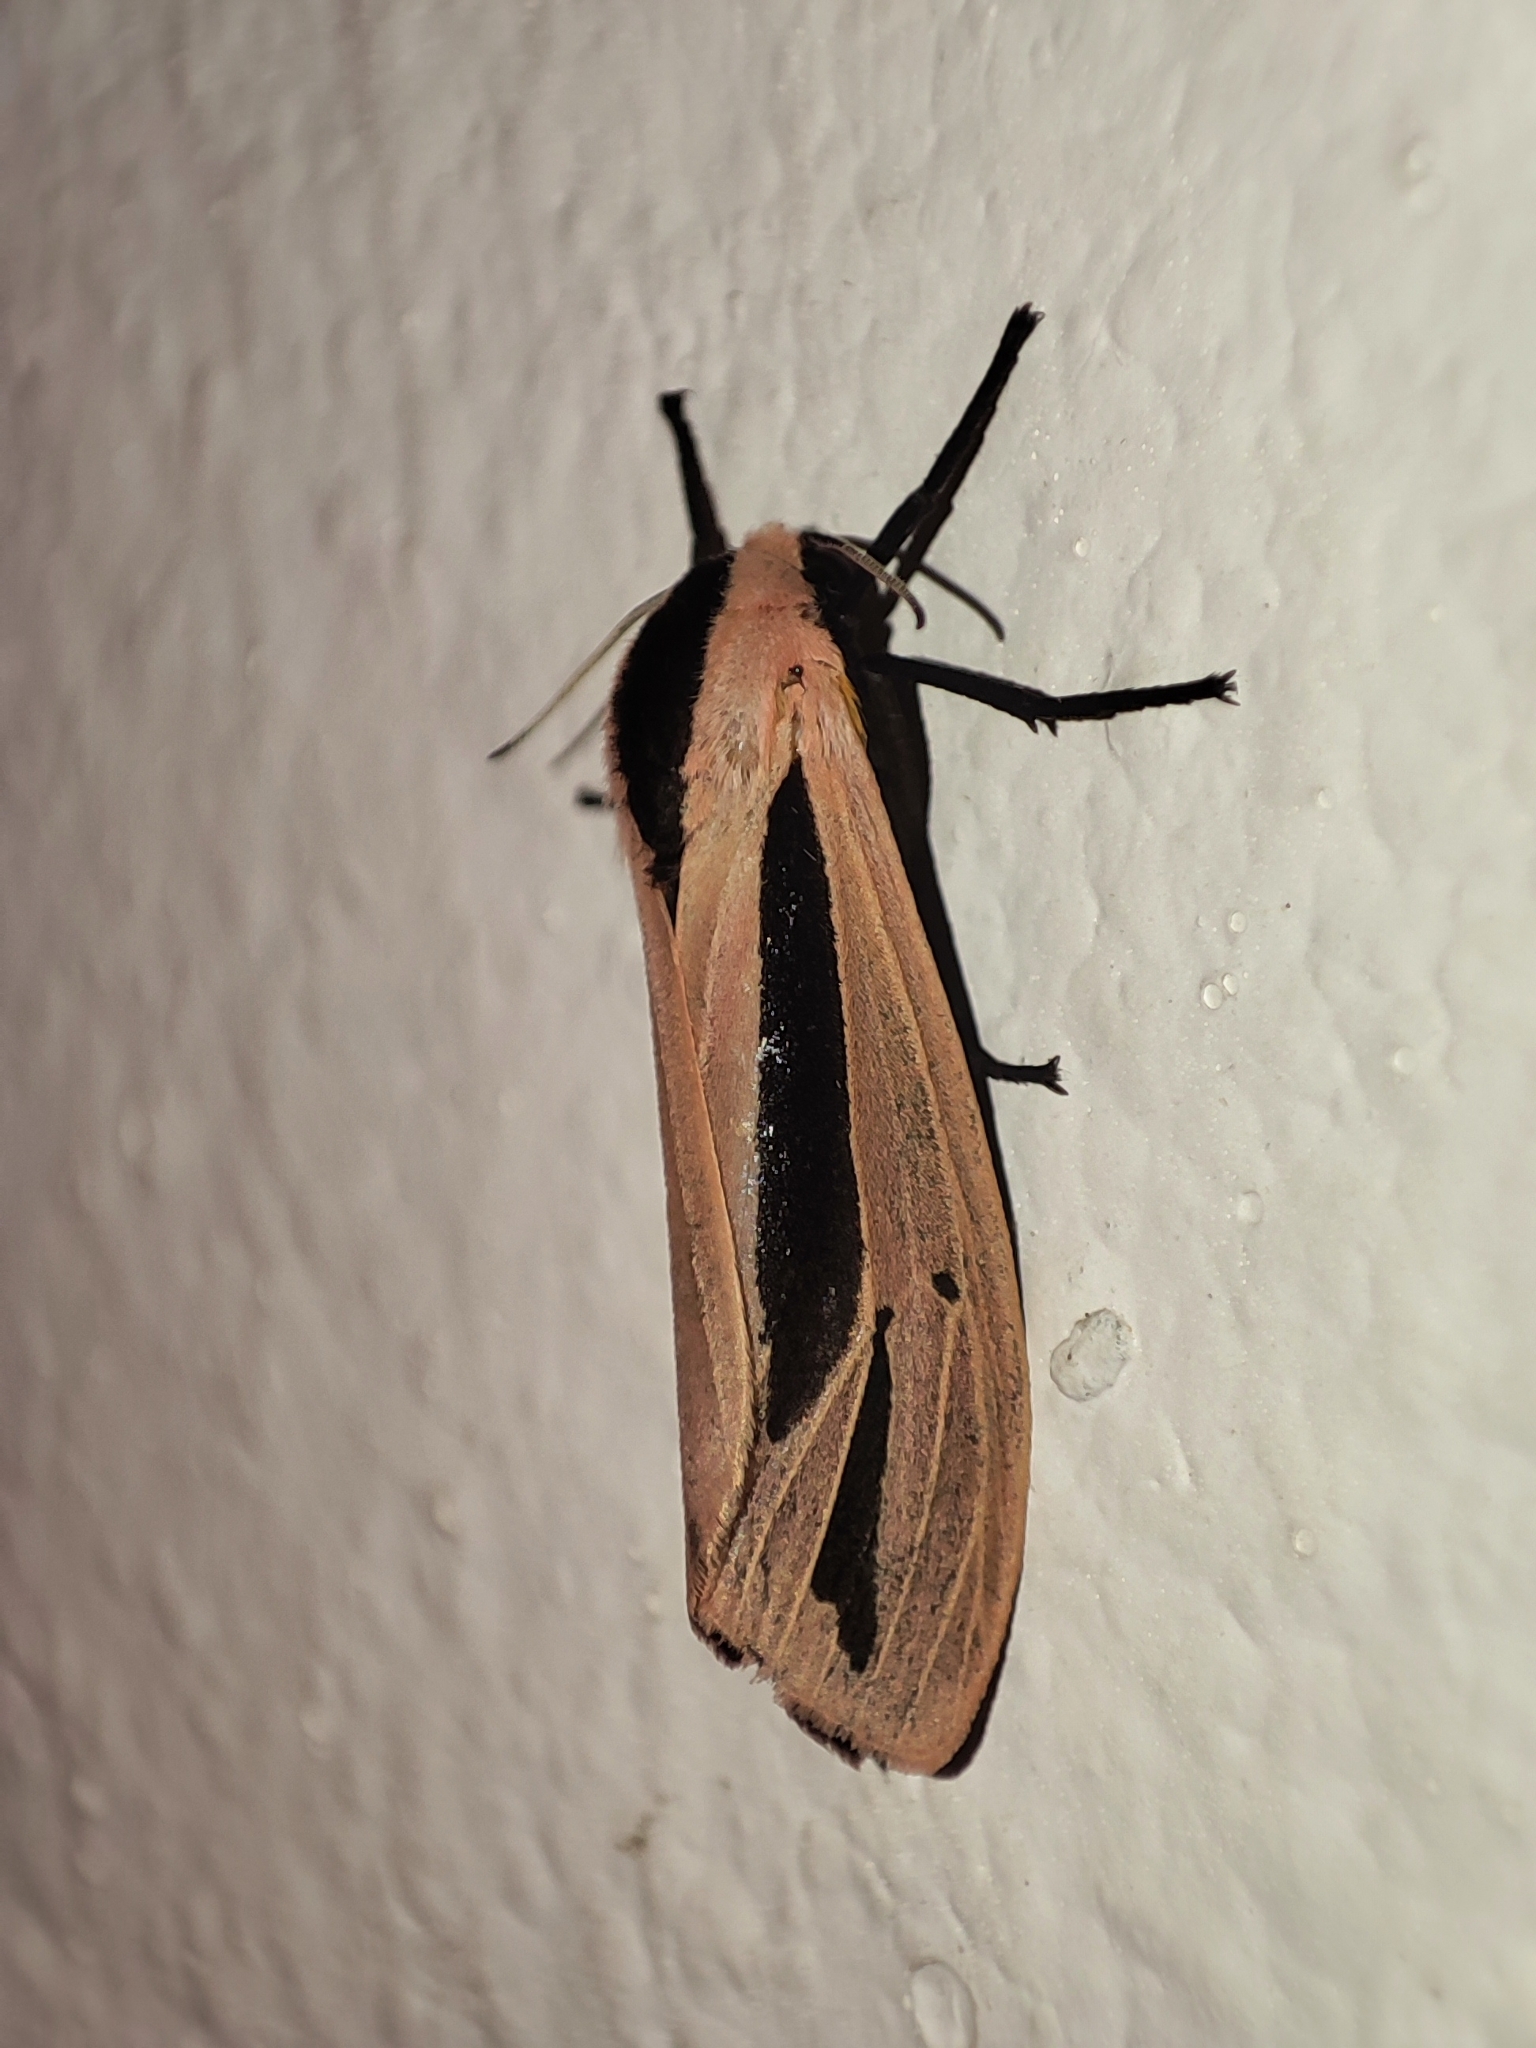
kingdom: Animalia
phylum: Arthropoda
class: Insecta
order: Lepidoptera
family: Erebidae
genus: Creatonotos
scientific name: Creatonotos gangis
